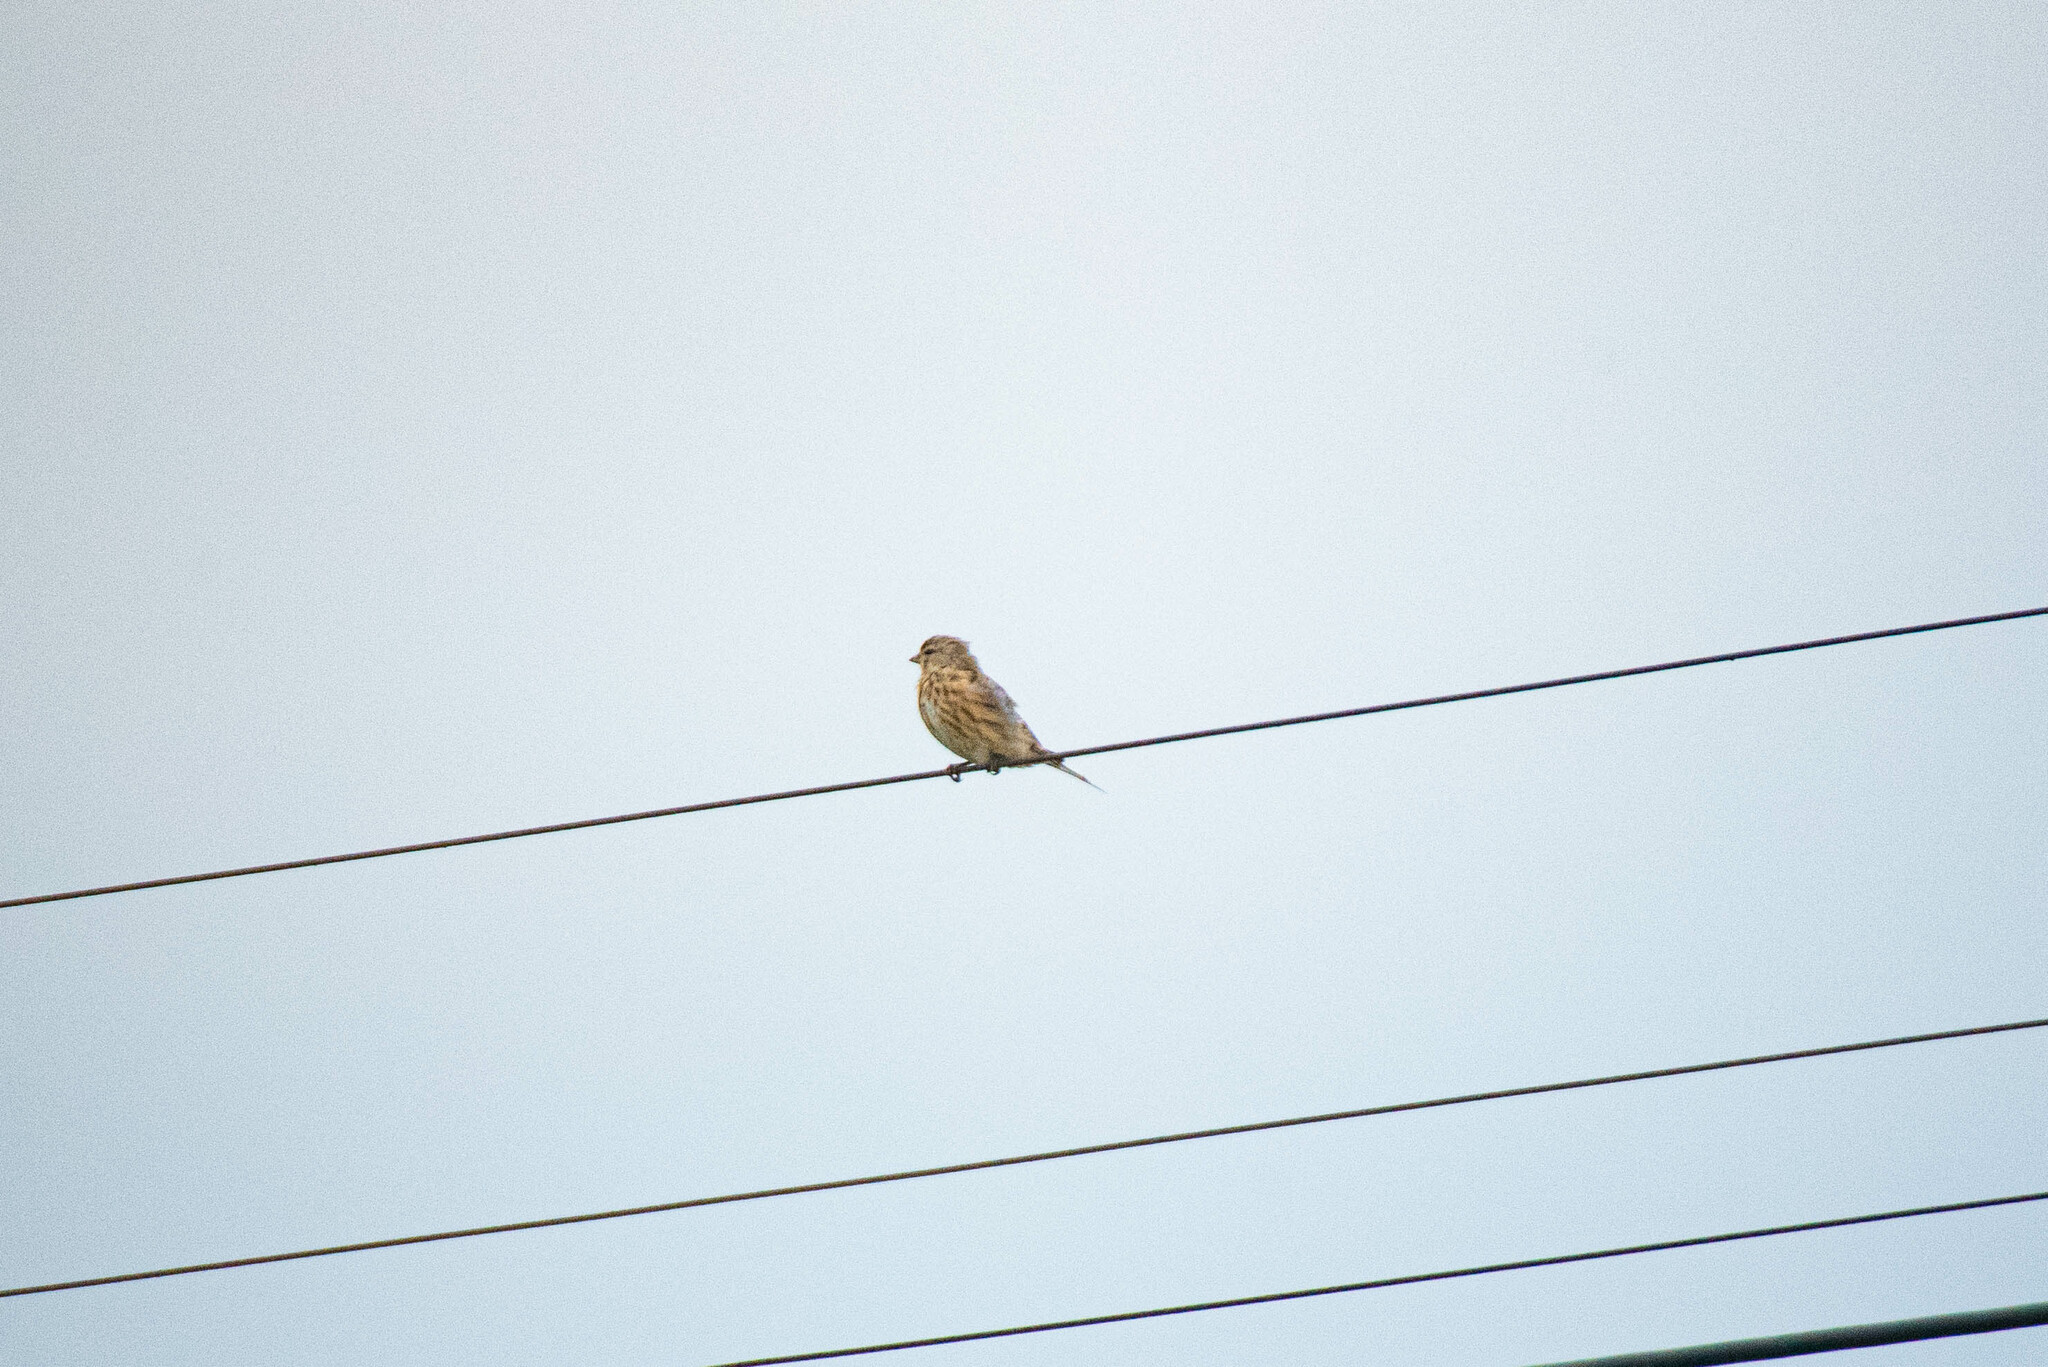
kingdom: Animalia
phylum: Chordata
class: Aves
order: Passeriformes
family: Fringillidae
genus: Linaria
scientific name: Linaria cannabina
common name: Common linnet
